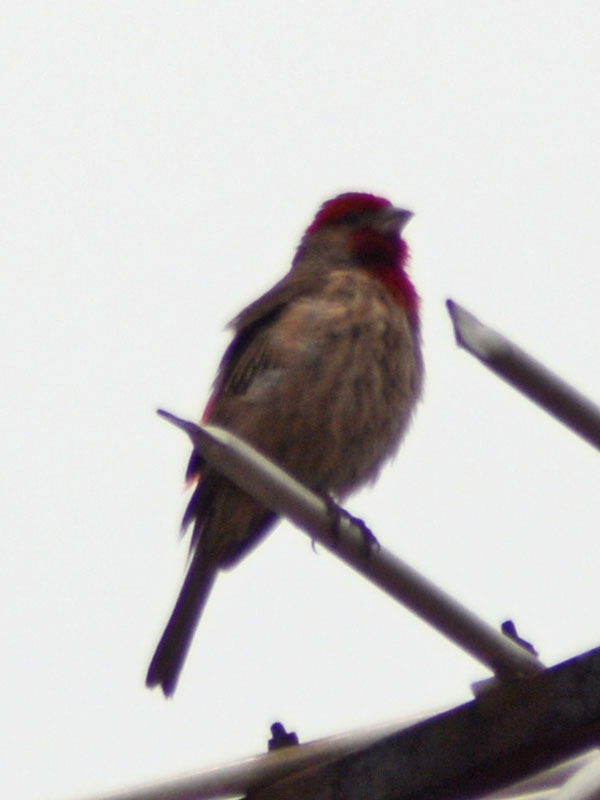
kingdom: Animalia
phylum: Chordata
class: Aves
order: Passeriformes
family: Fringillidae
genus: Haemorhous
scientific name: Haemorhous mexicanus
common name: House finch
